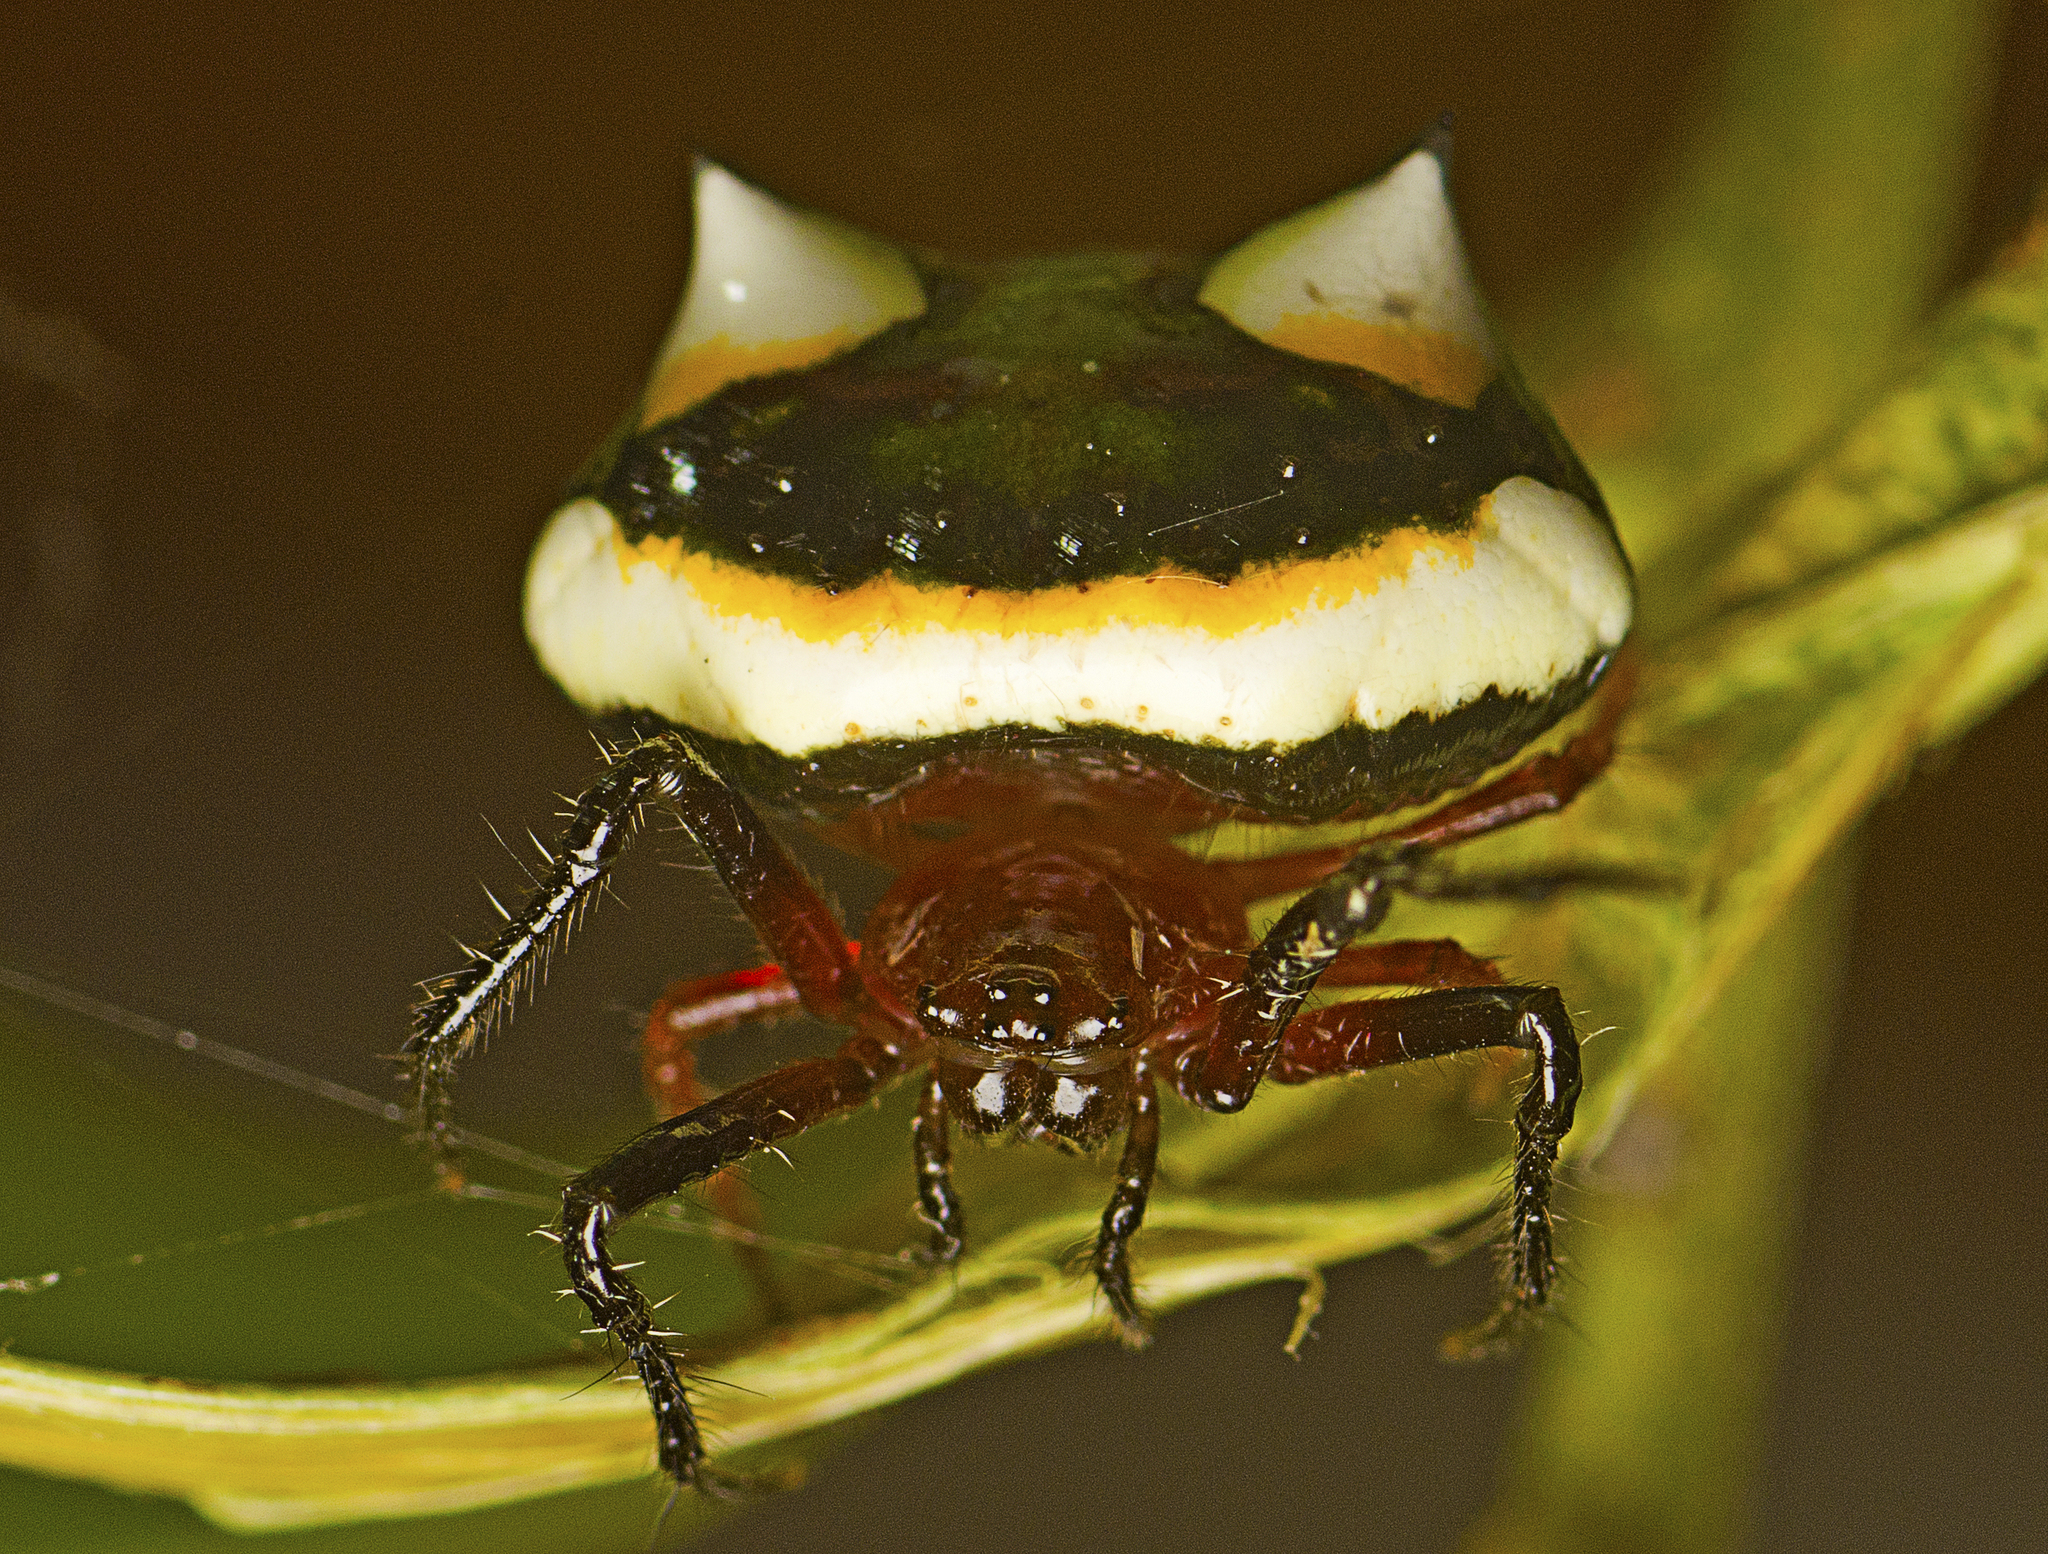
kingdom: Animalia
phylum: Arthropoda
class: Arachnida
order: Araneae
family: Araneidae
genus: Poecilopachys
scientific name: Poecilopachys australasia
